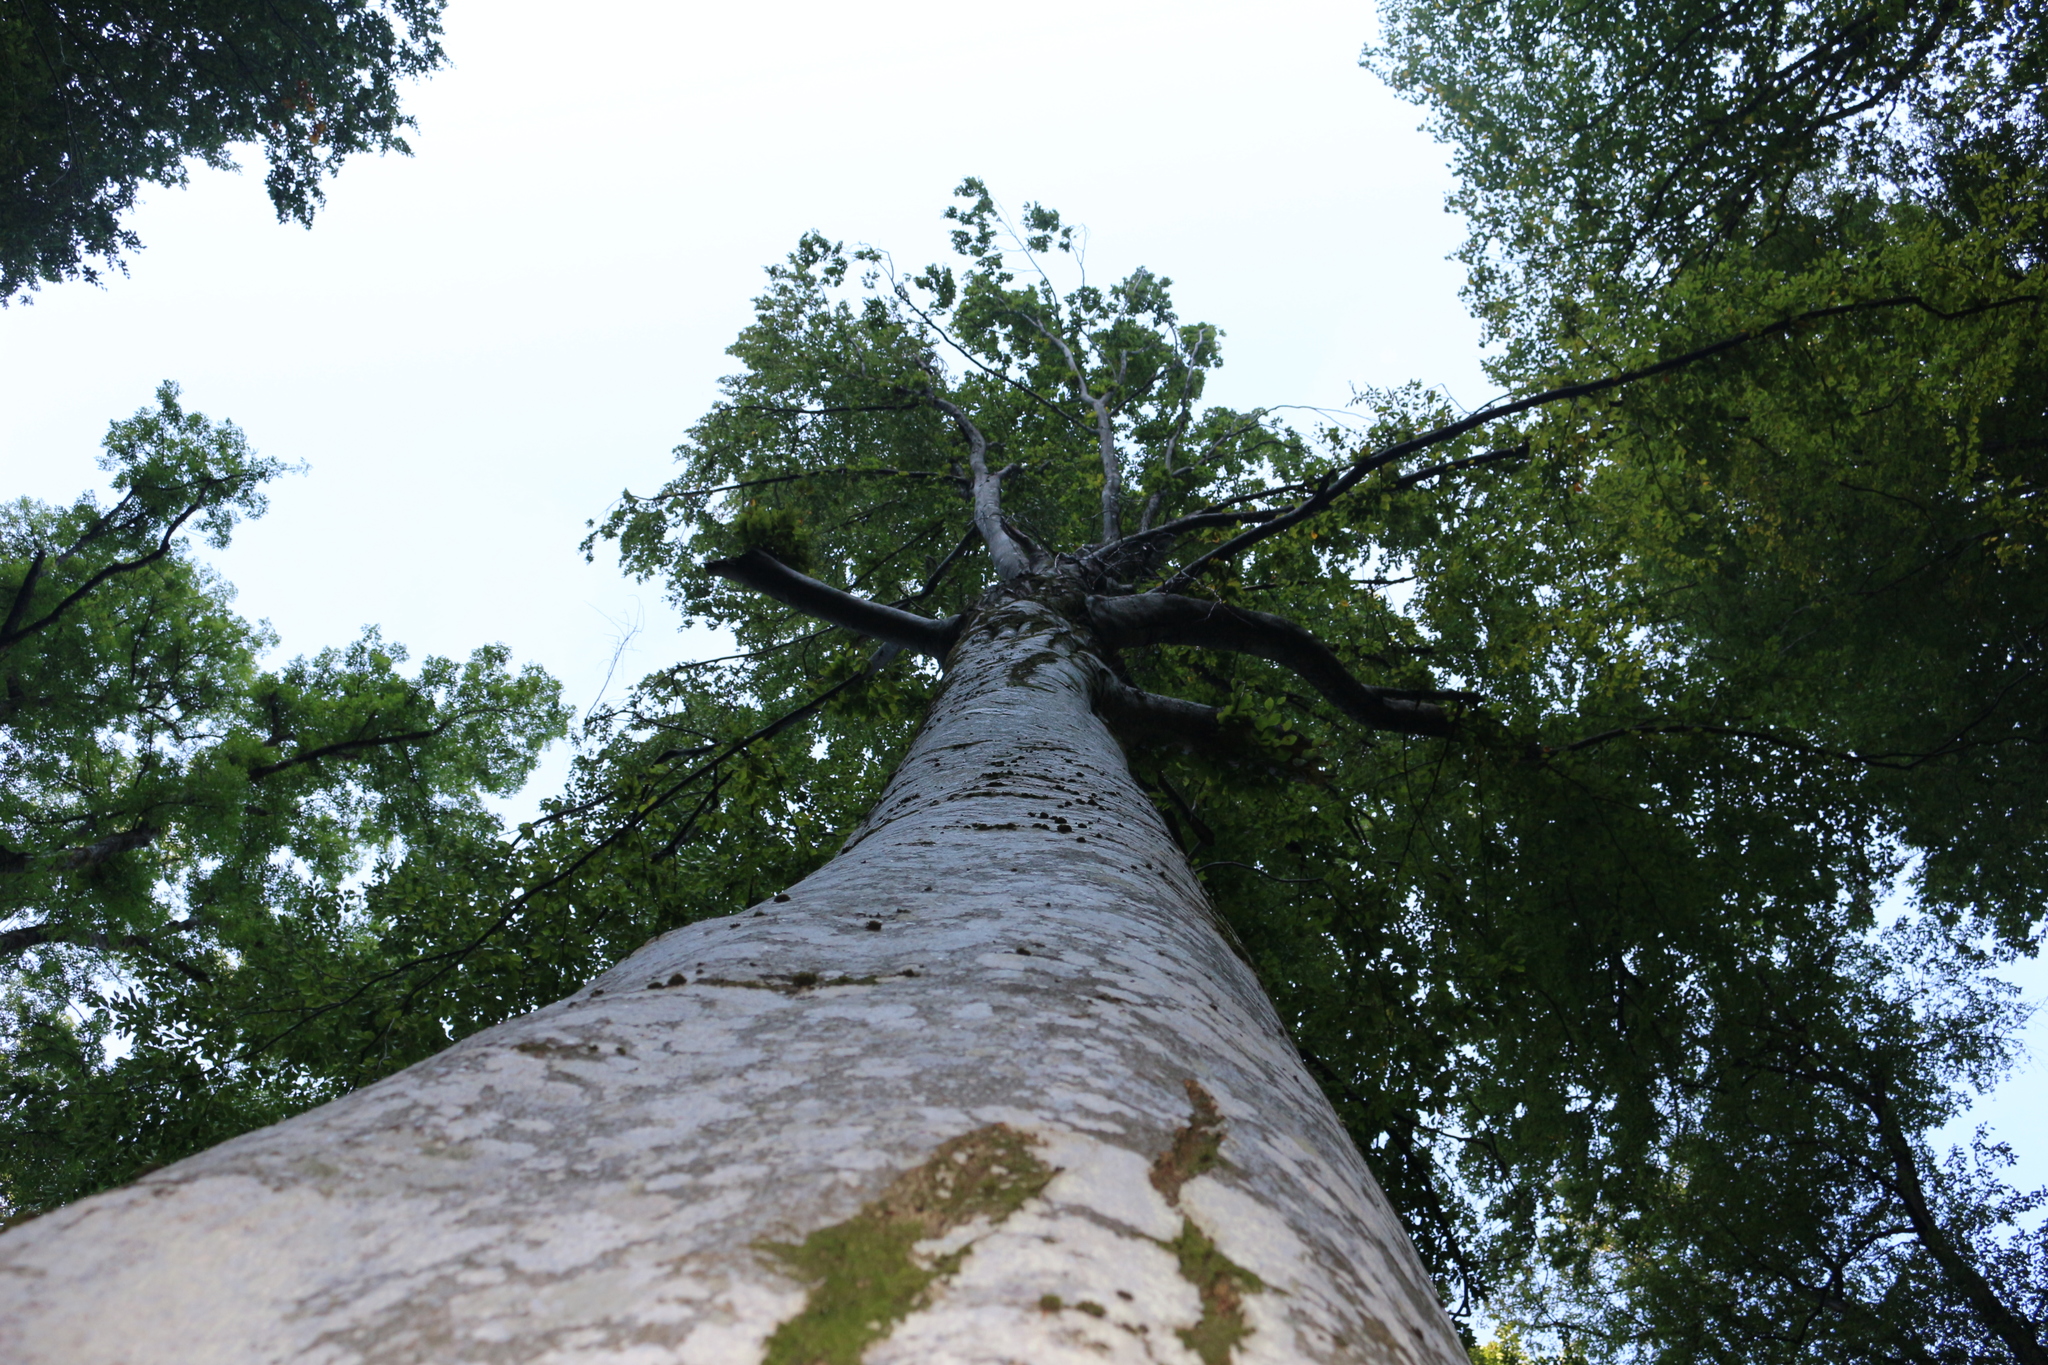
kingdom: Plantae
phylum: Tracheophyta
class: Magnoliopsida
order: Sapindales
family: Sapindaceae
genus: Acer
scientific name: Acer pseudoplatanus
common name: Sycamore
